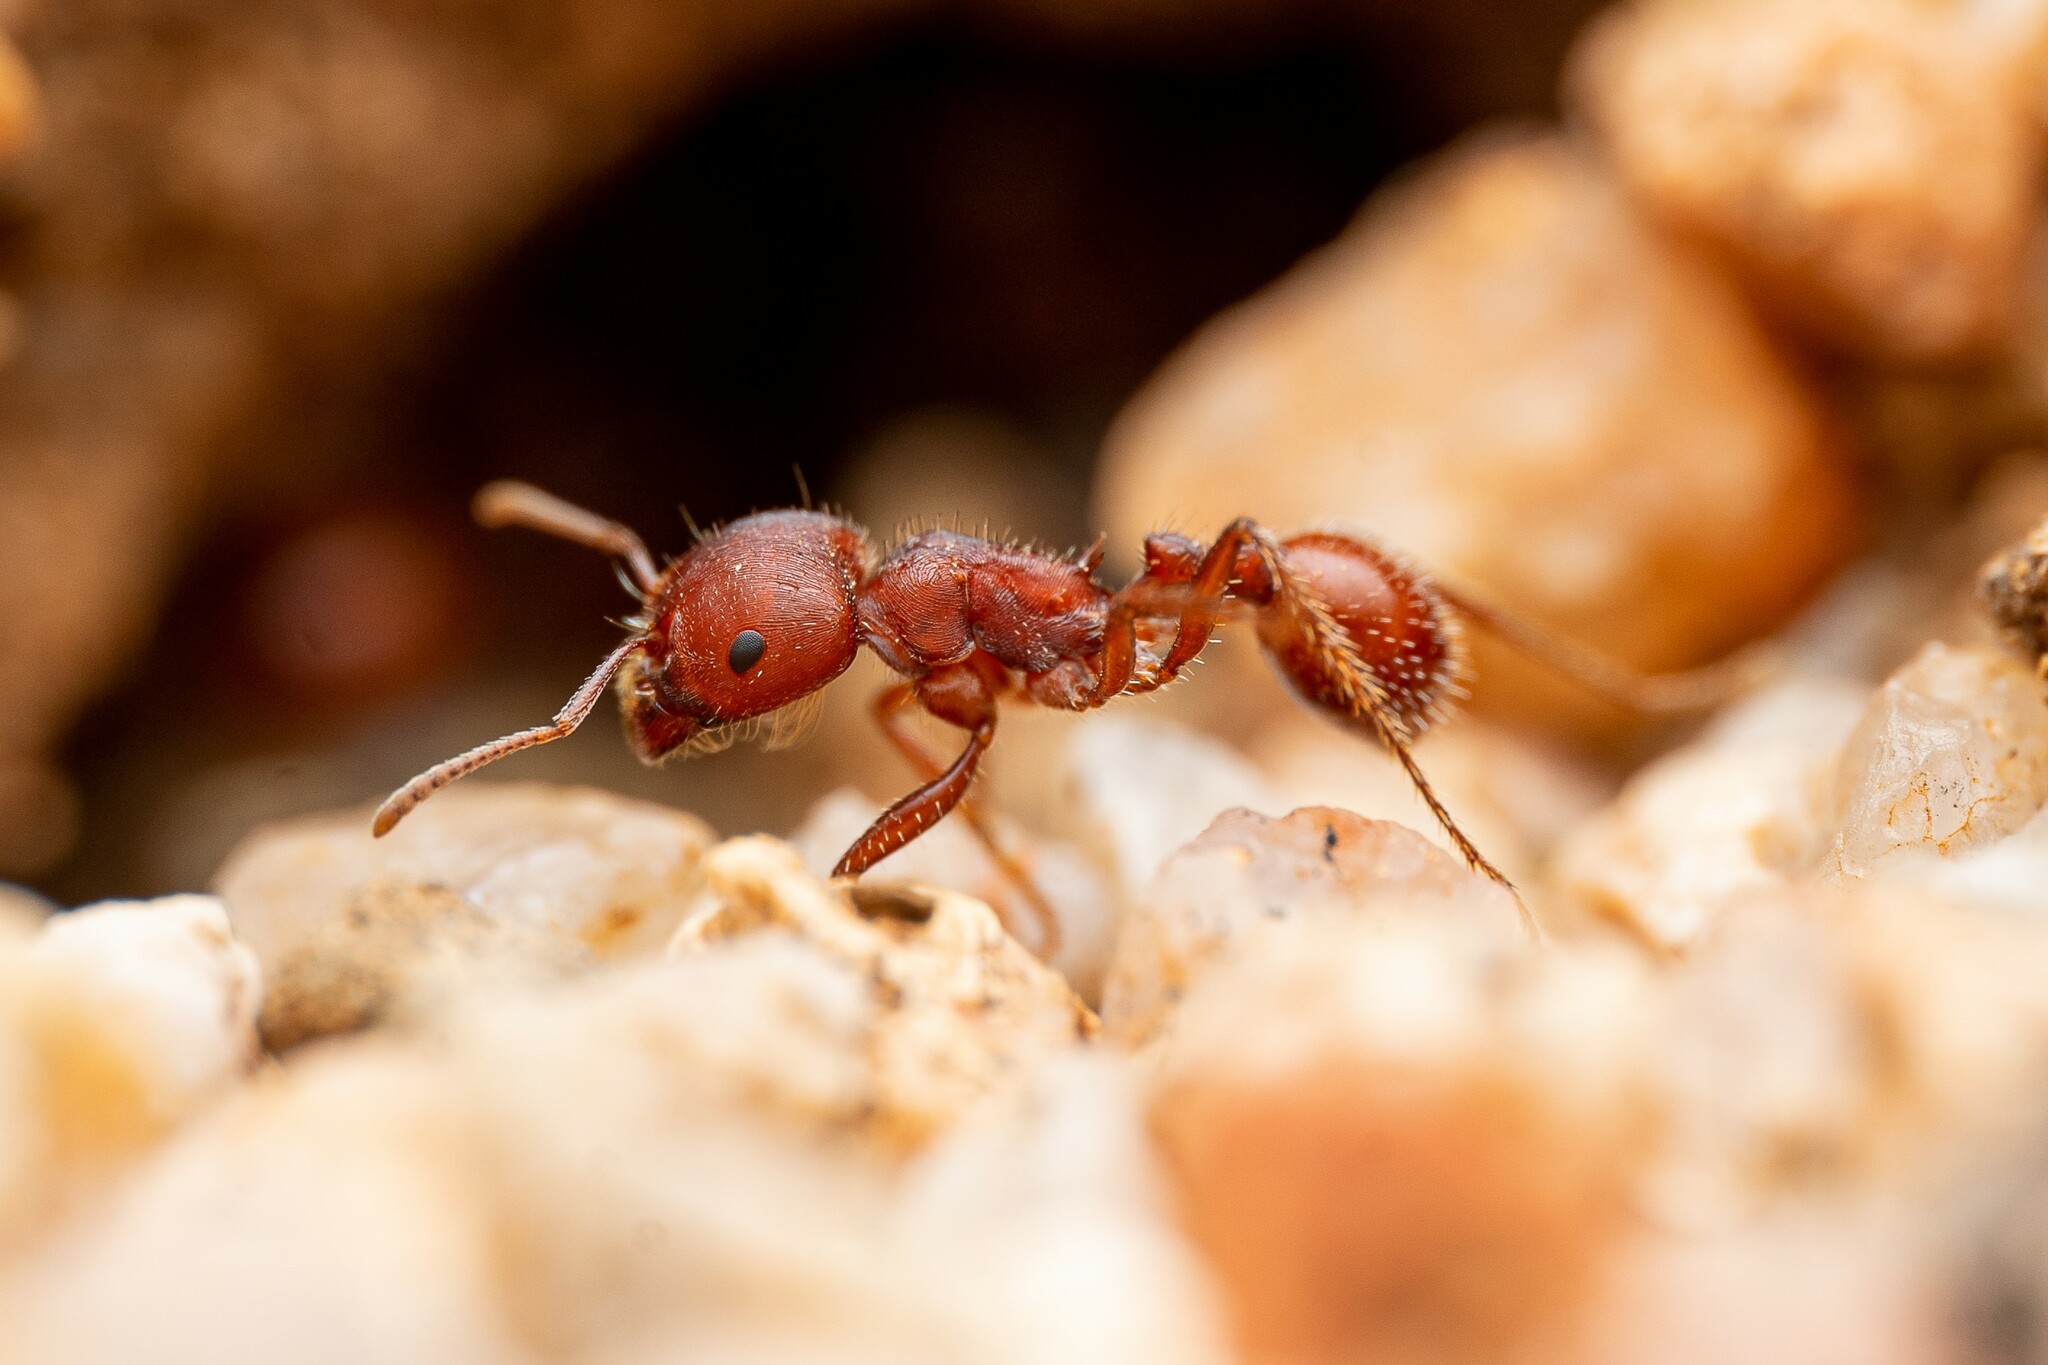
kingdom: Animalia
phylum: Arthropoda
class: Insecta
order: Hymenoptera
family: Formicidae
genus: Pogonomyrmex
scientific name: Pogonomyrmex barbatus
